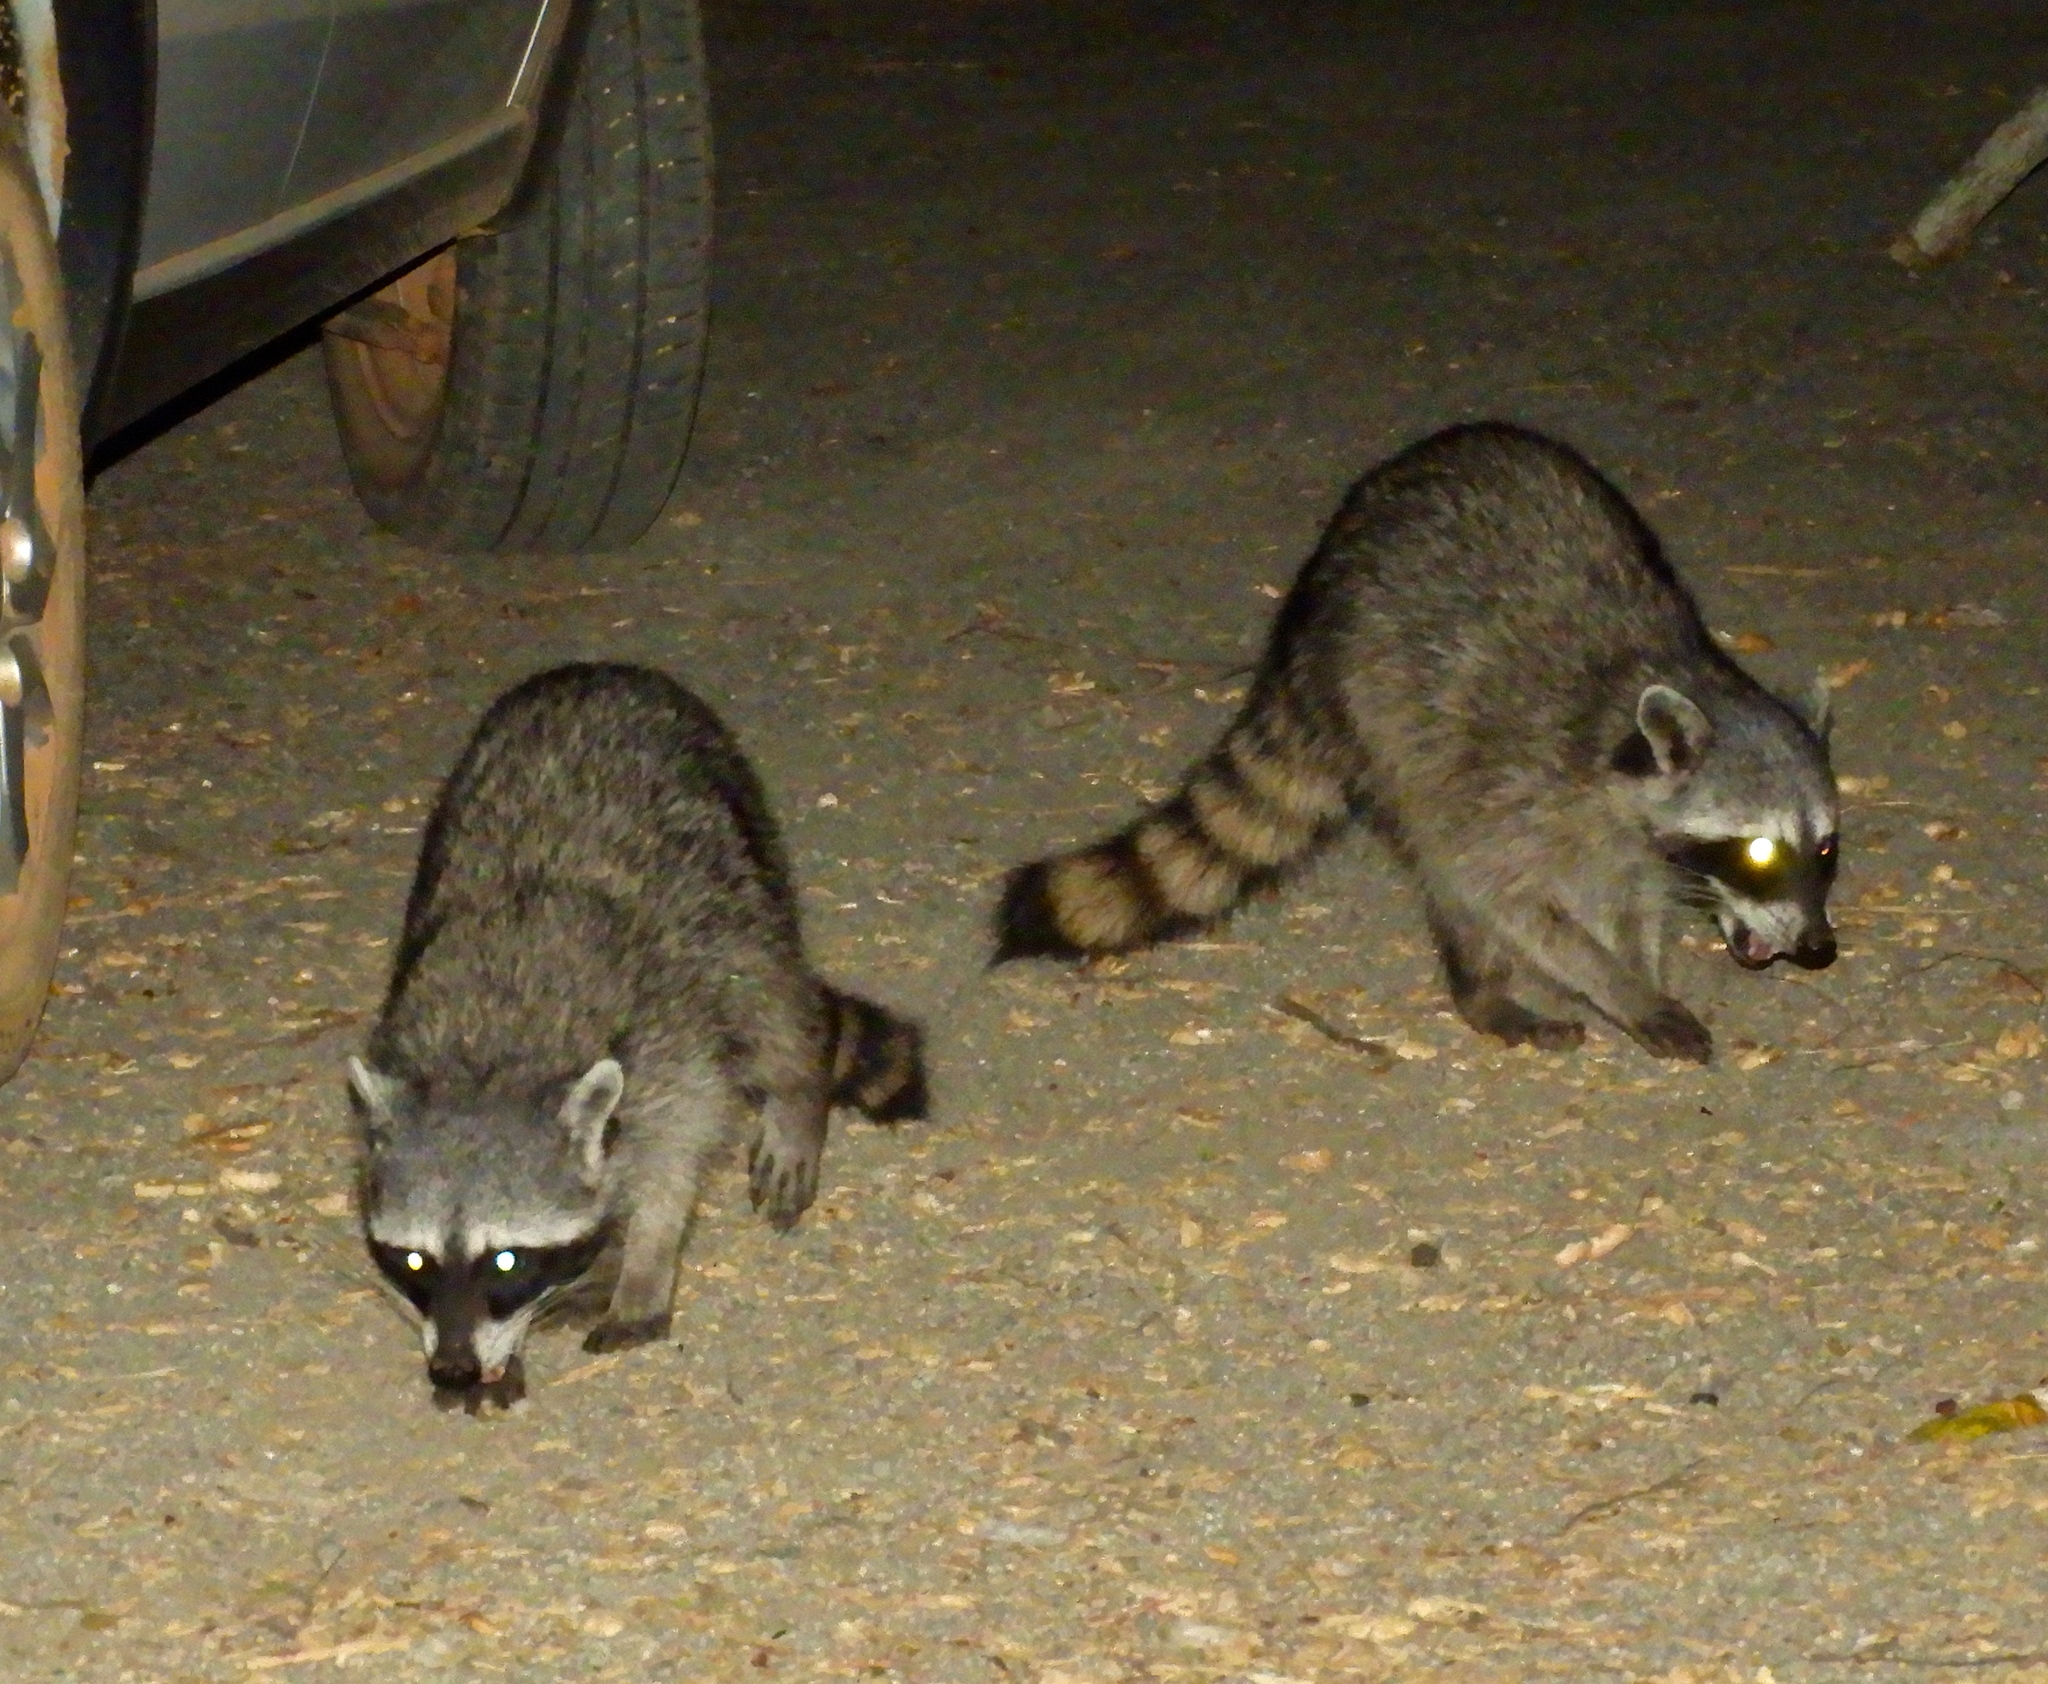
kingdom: Animalia
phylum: Chordata
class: Mammalia
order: Carnivora
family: Procyonidae
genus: Procyon
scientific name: Procyon lotor
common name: Raccoon
